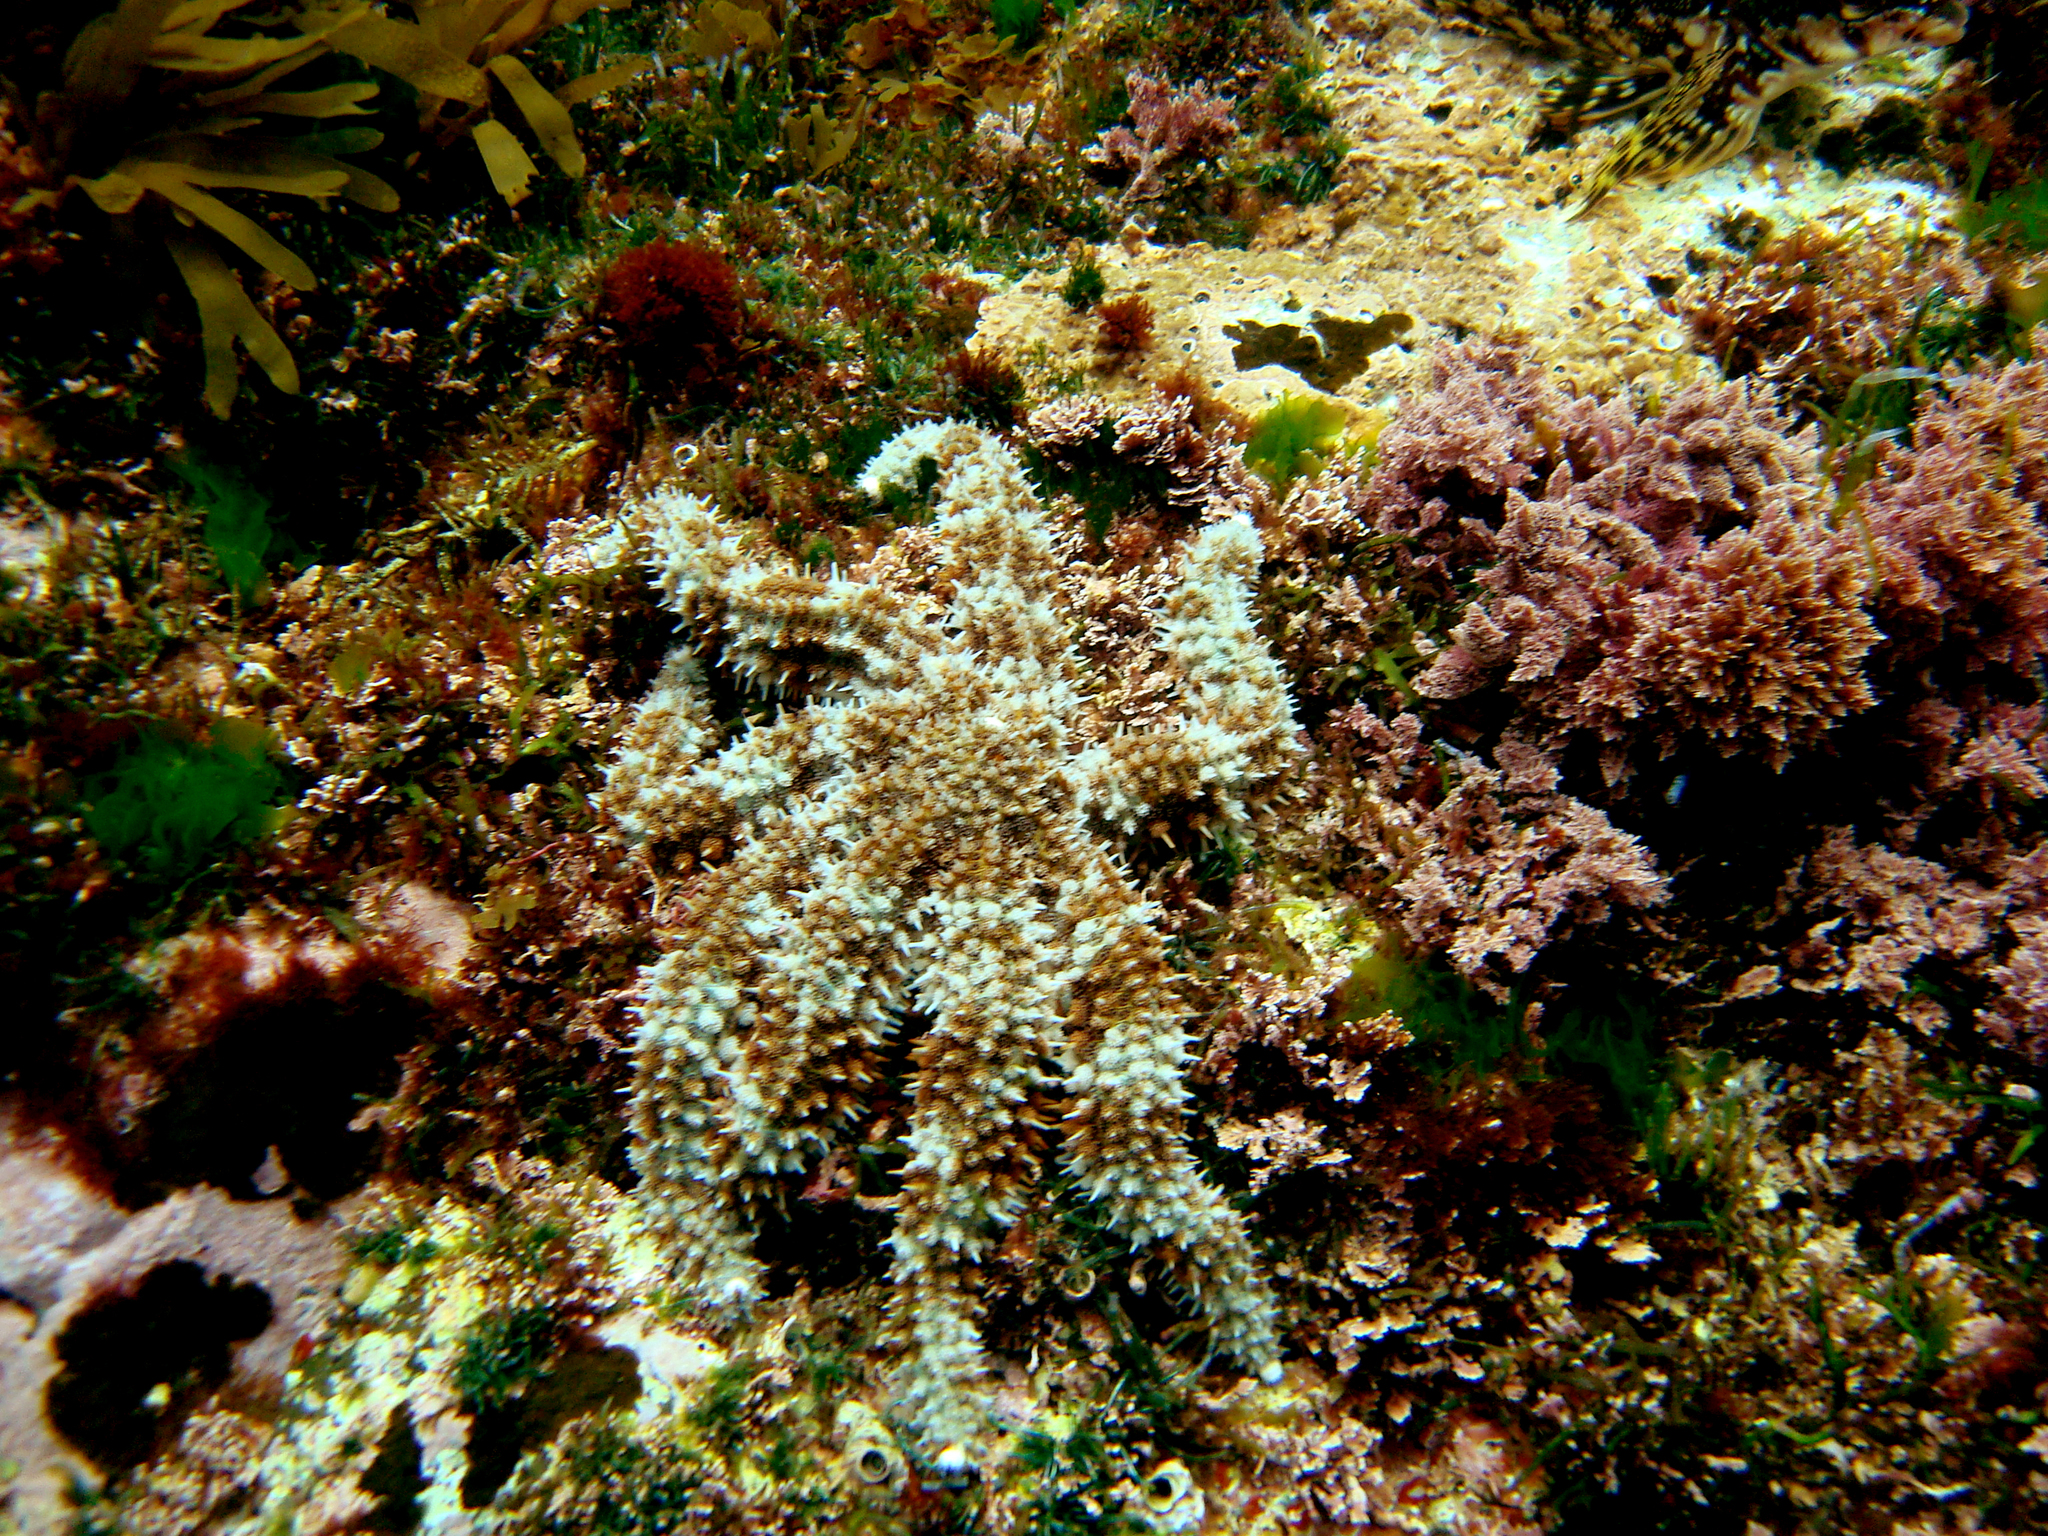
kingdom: Animalia
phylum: Echinodermata
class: Asteroidea
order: Forcipulatida
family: Asteriidae
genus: Astrostole
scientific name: Astrostole platei
